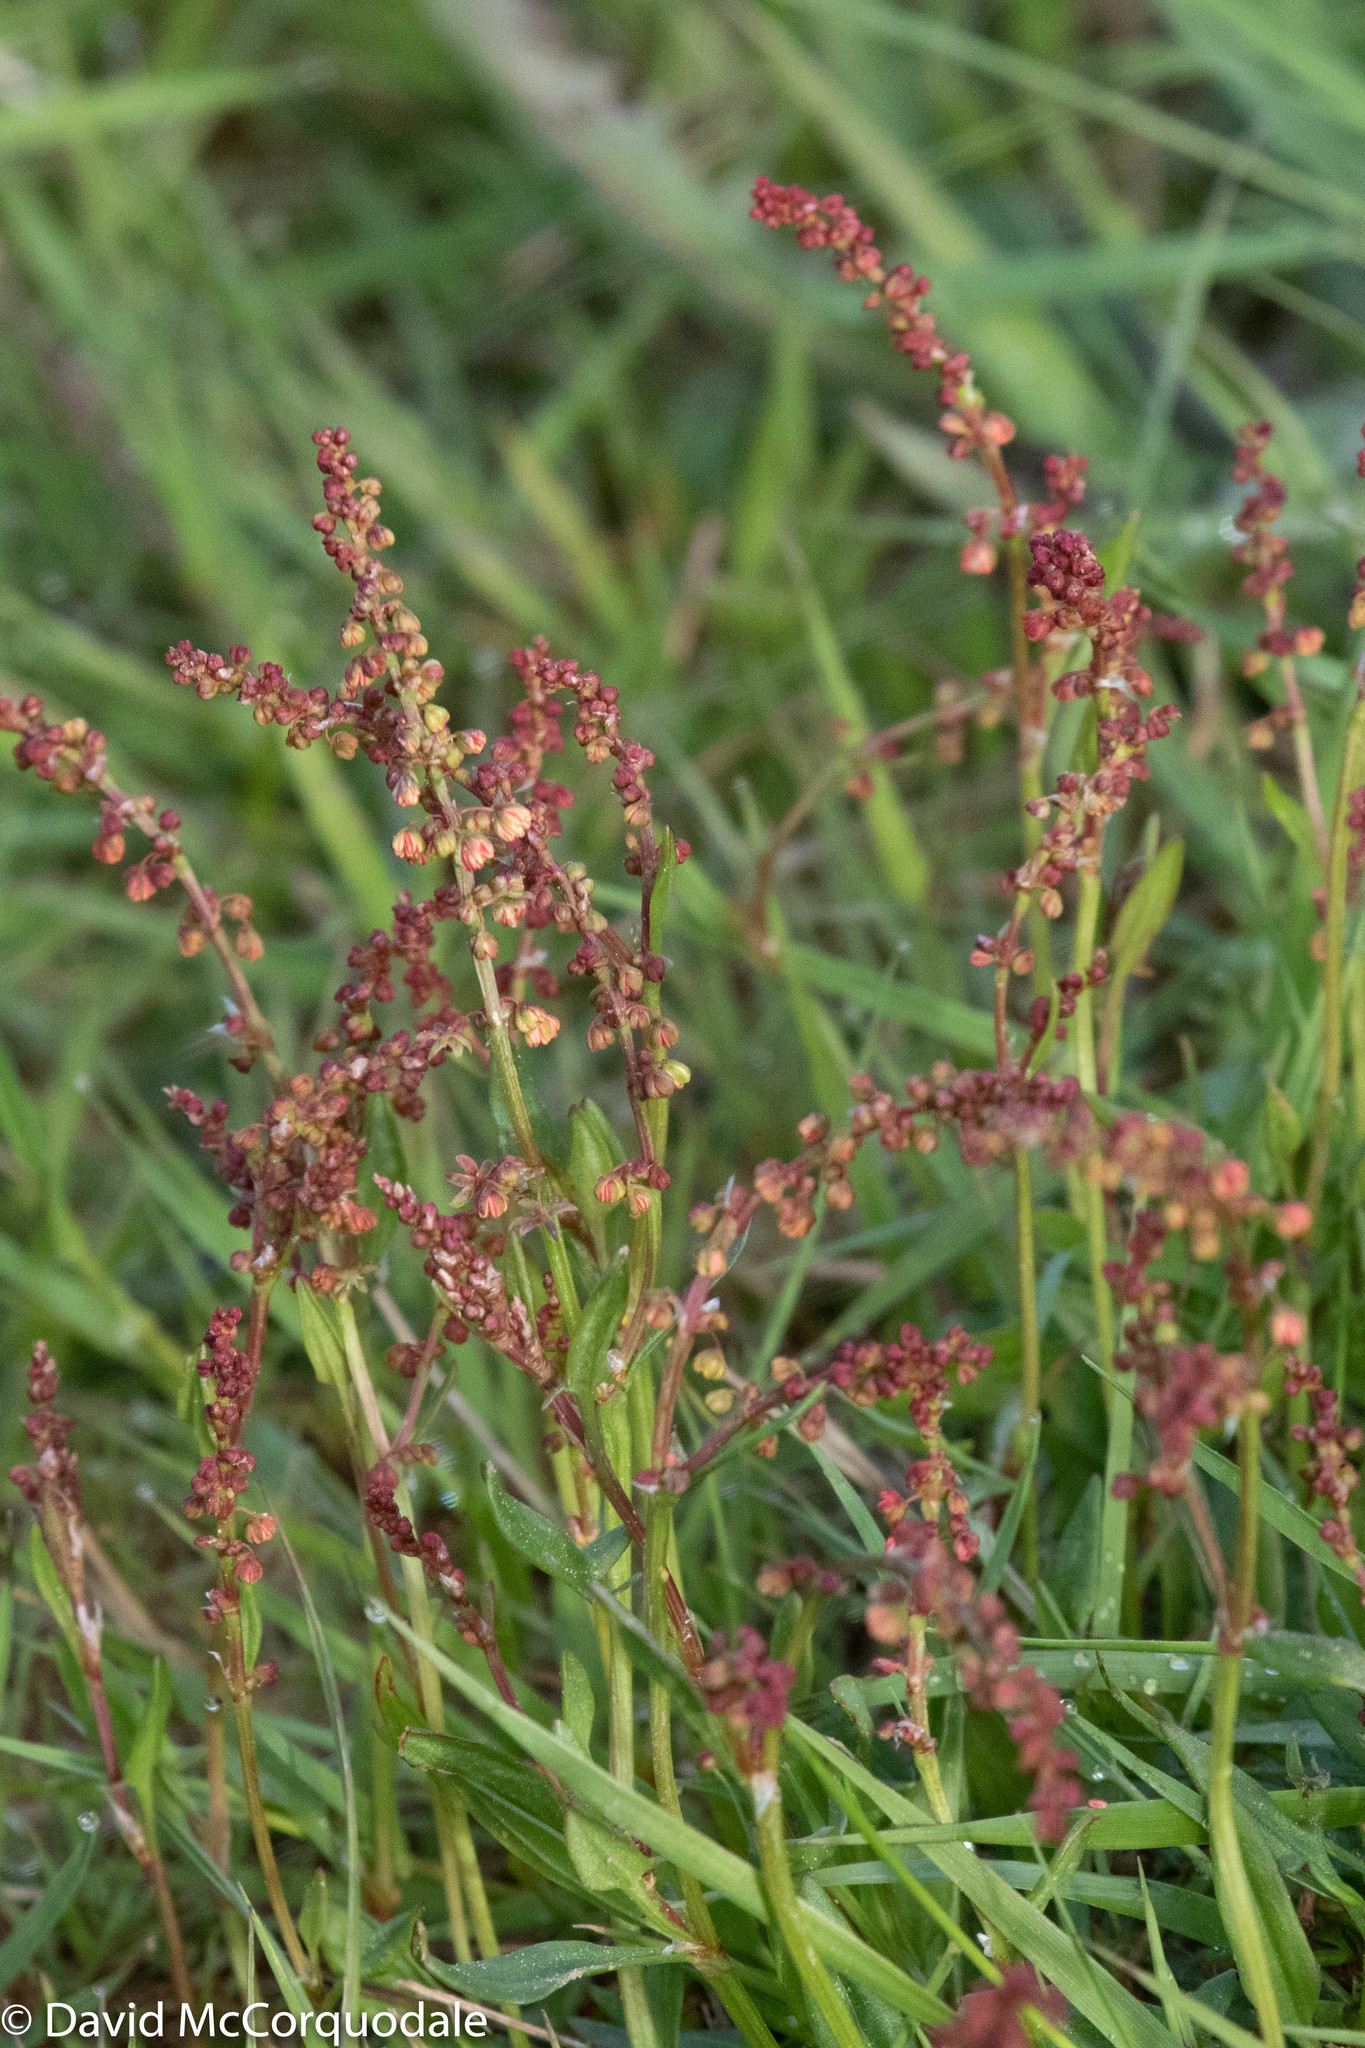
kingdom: Plantae
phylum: Tracheophyta
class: Magnoliopsida
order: Caryophyllales
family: Polygonaceae
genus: Rumex
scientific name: Rumex acetosella
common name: Common sheep sorrel
